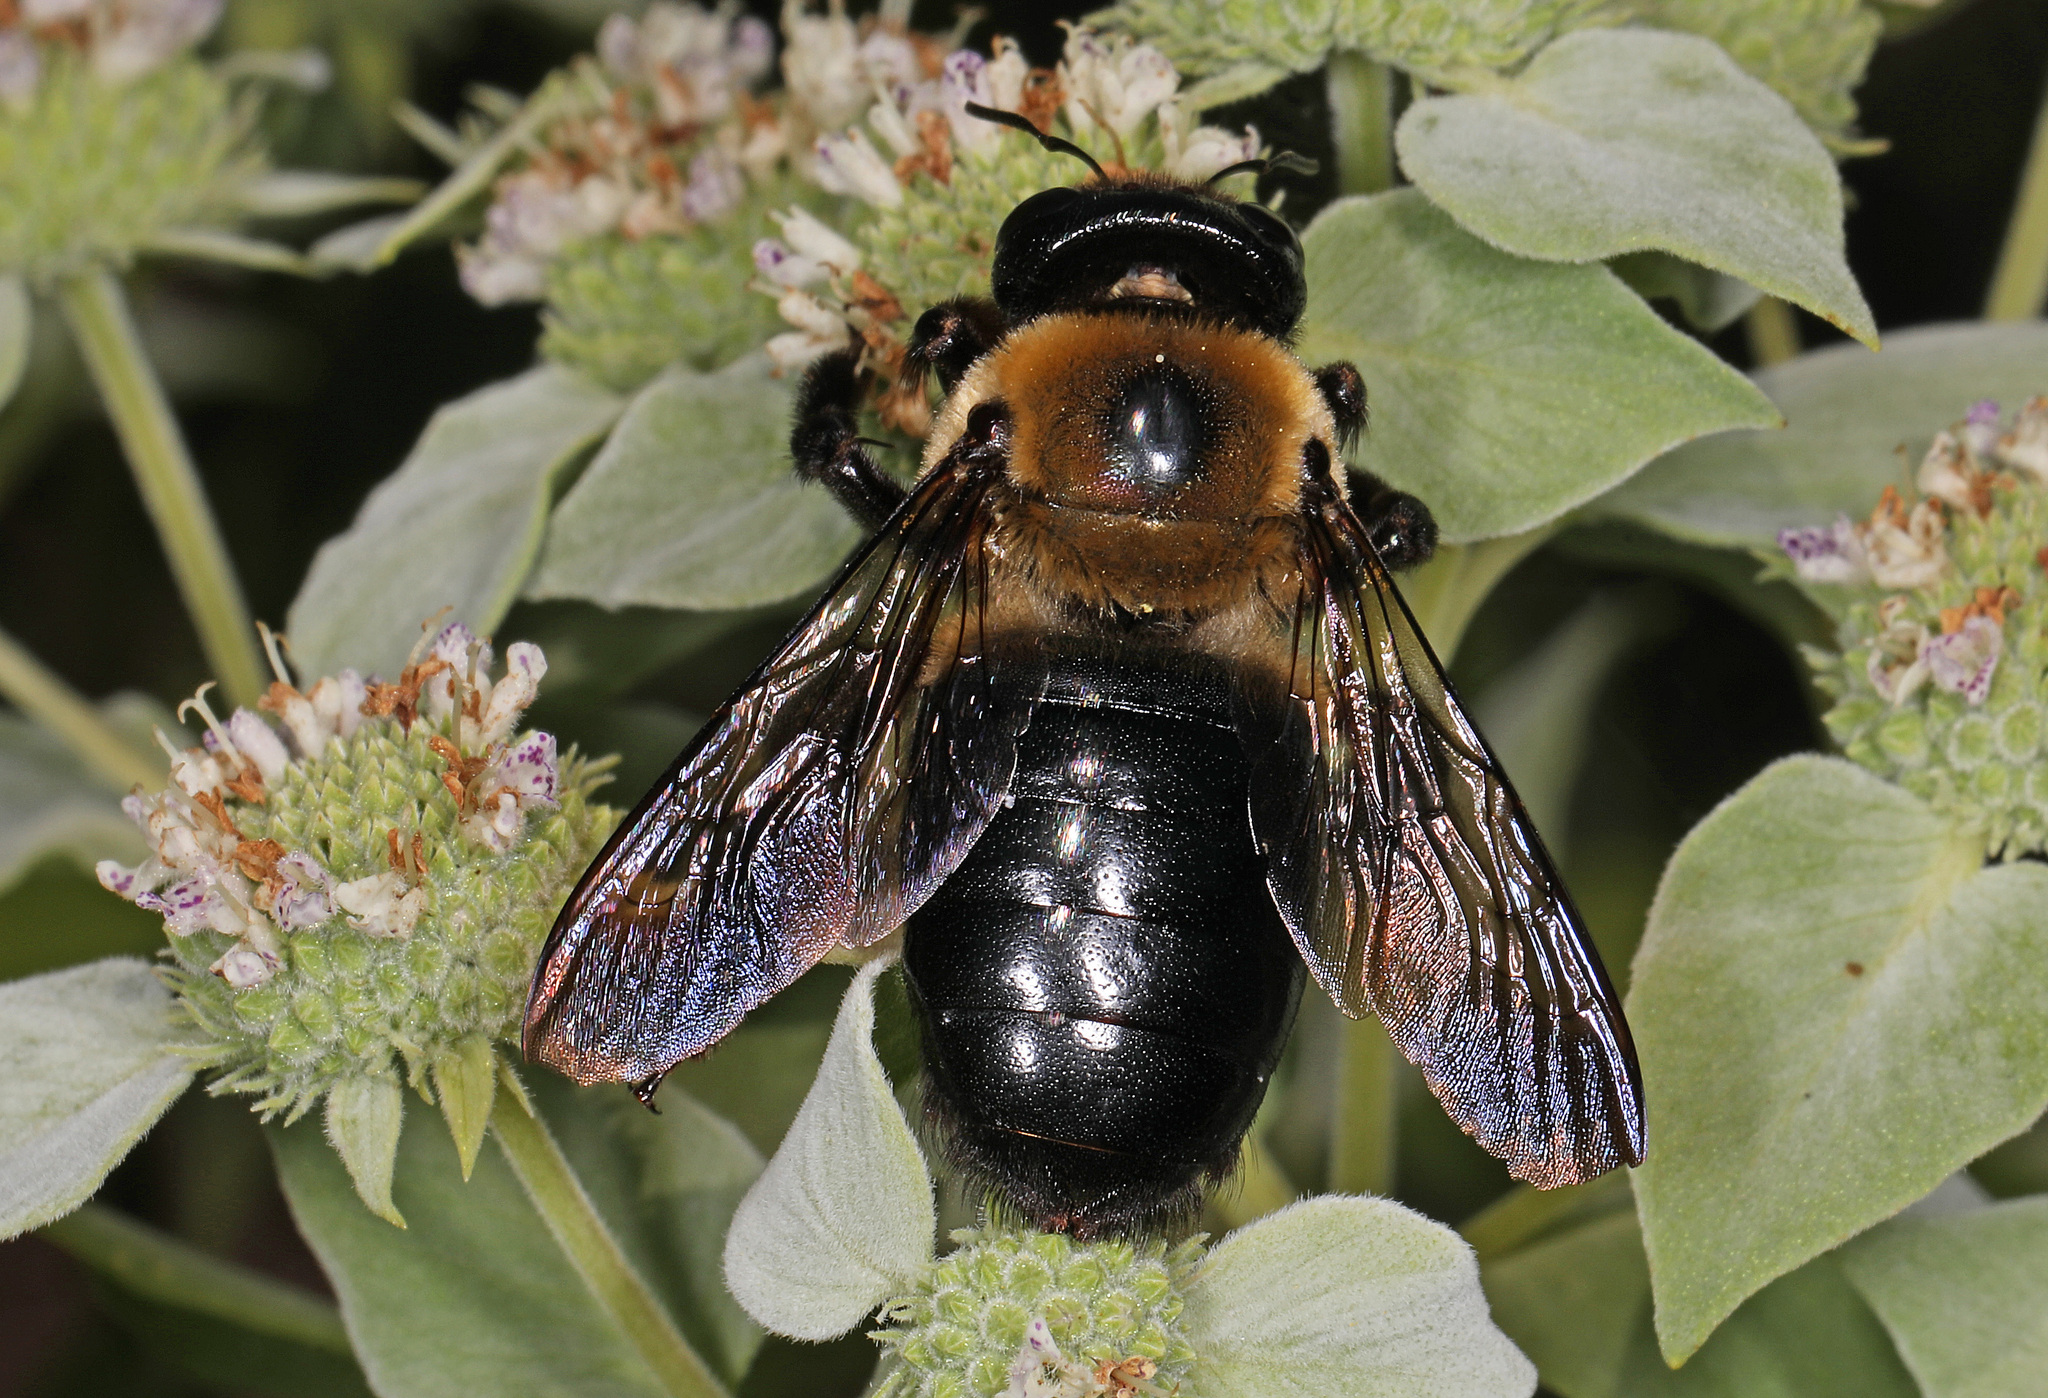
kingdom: Animalia
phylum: Arthropoda
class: Insecta
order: Hymenoptera
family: Apidae
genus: Xylocopa
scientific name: Xylocopa virginica
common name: Carpenter bee
